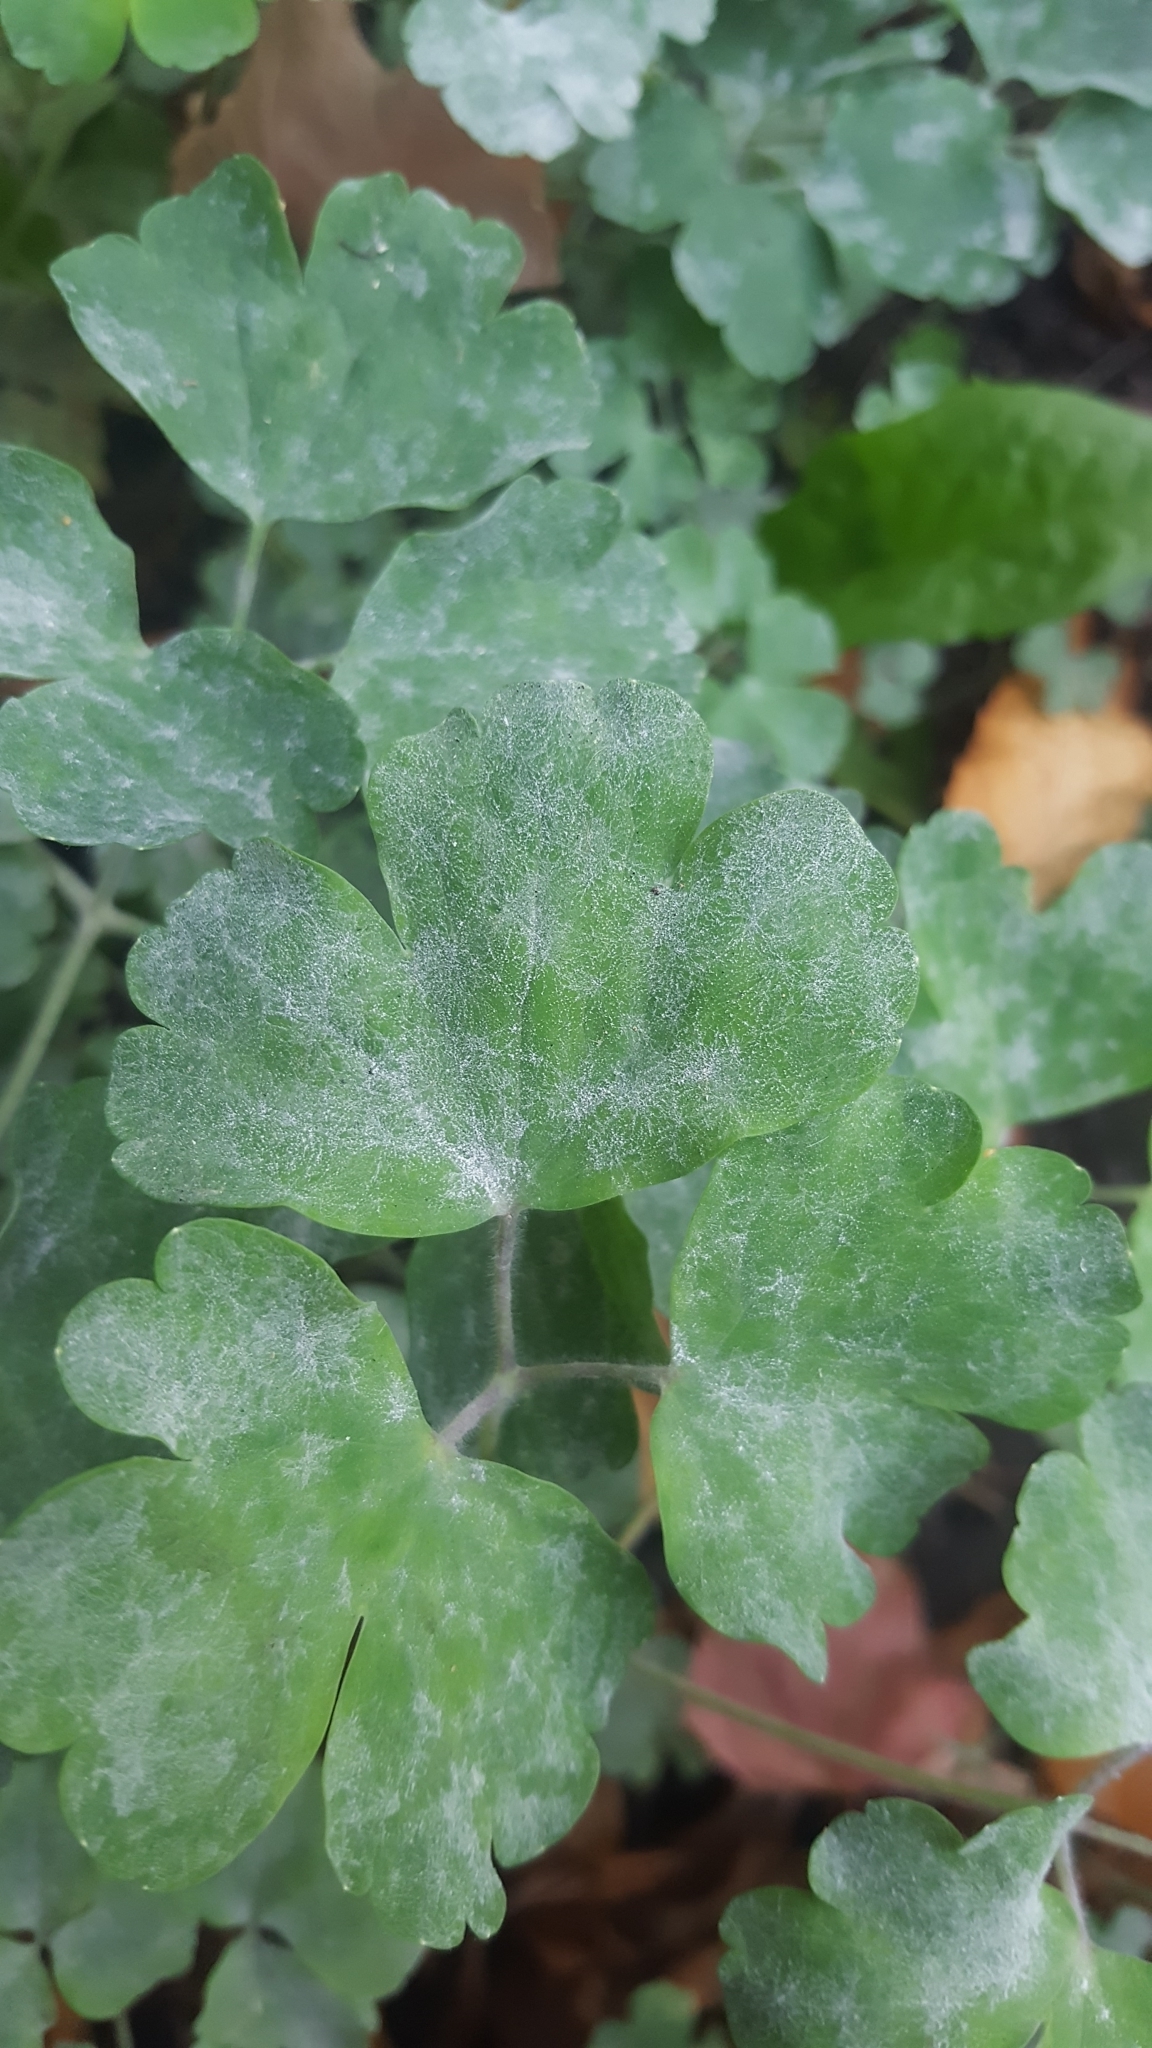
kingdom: Fungi
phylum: Ascomycota
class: Leotiomycetes
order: Helotiales
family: Erysiphaceae
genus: Erysiphe
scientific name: Erysiphe aquilegiae
